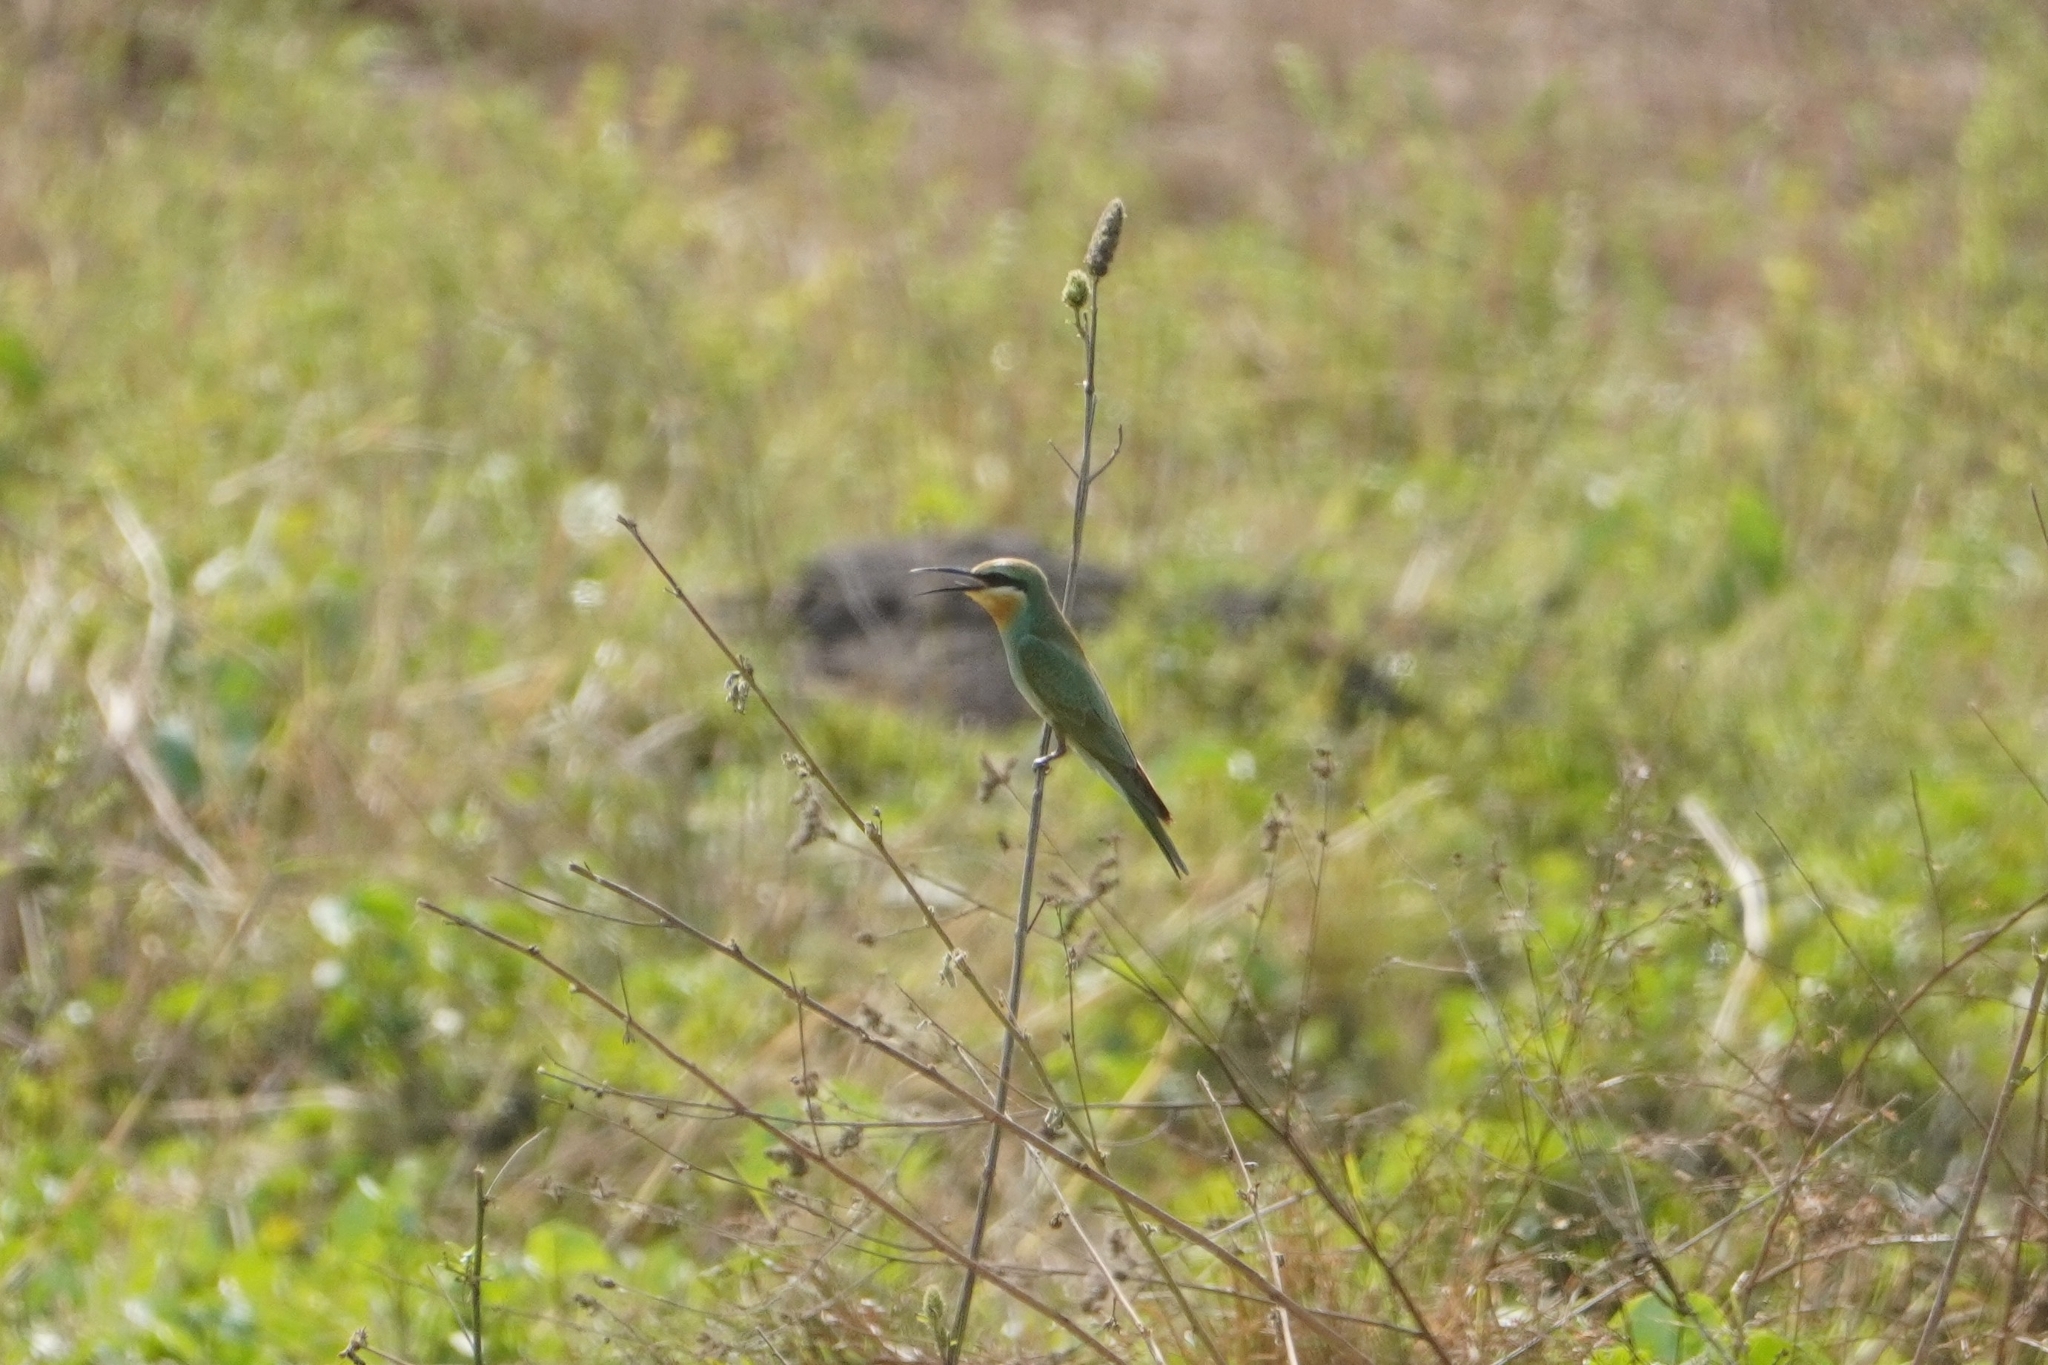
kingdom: Animalia
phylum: Chordata
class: Aves
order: Coraciiformes
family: Meropidae
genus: Merops
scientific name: Merops persicus
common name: Blue-cheeked bee-eater
